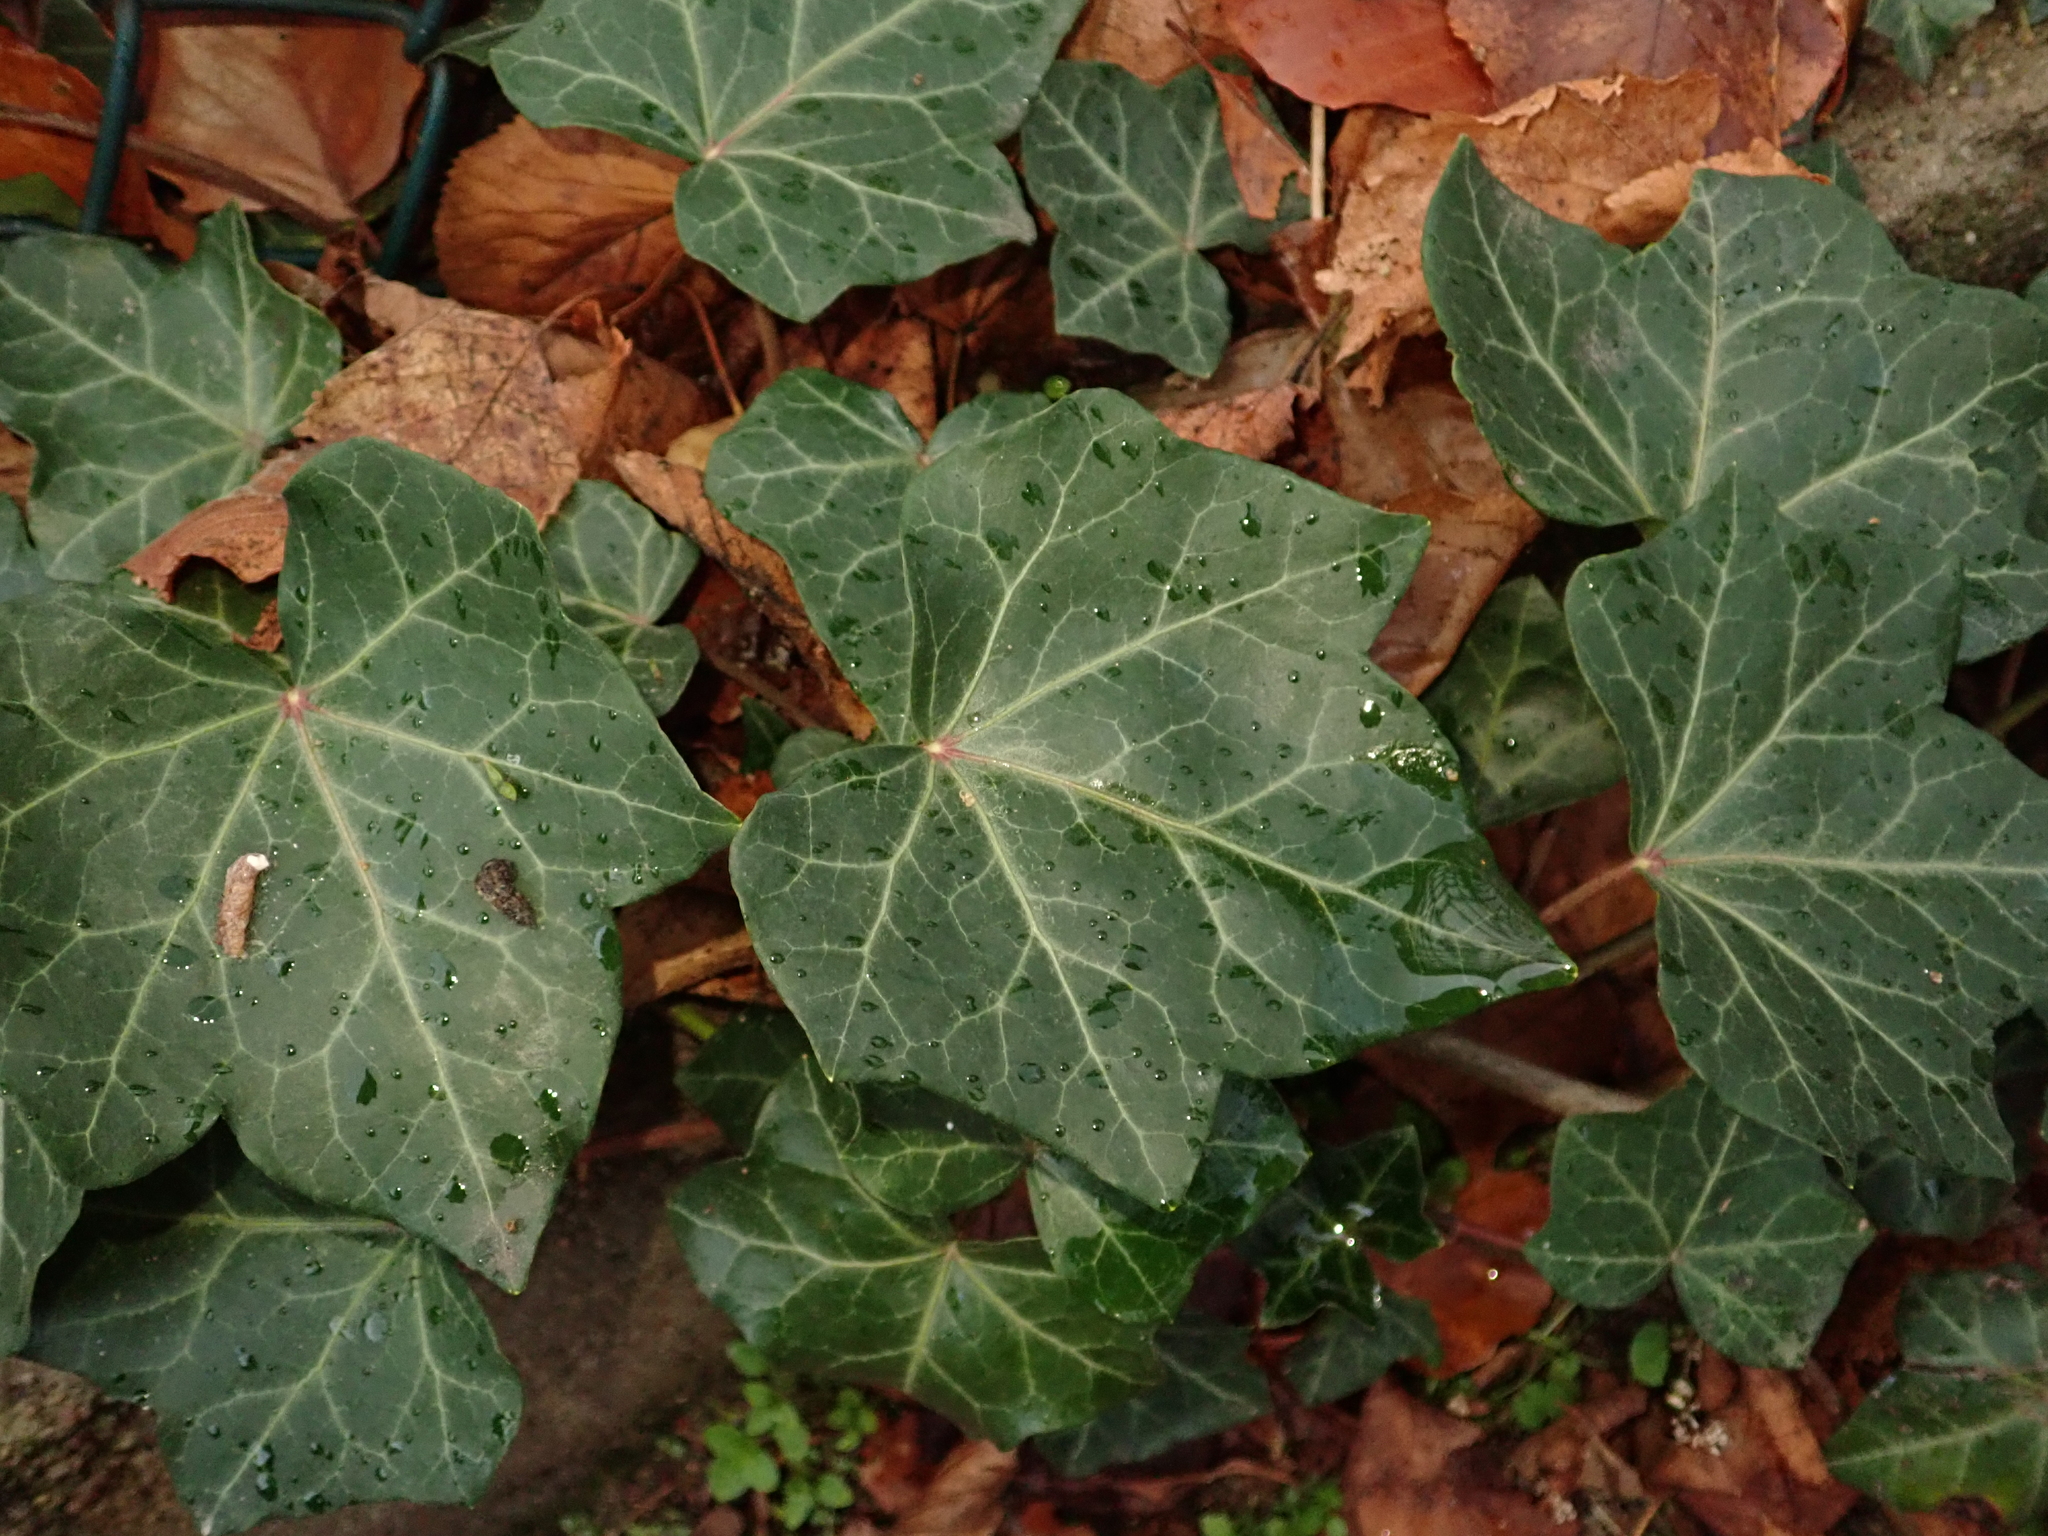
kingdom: Plantae
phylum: Tracheophyta
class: Magnoliopsida
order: Apiales
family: Araliaceae
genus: Hedera
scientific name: Hedera helix
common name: Ivy
